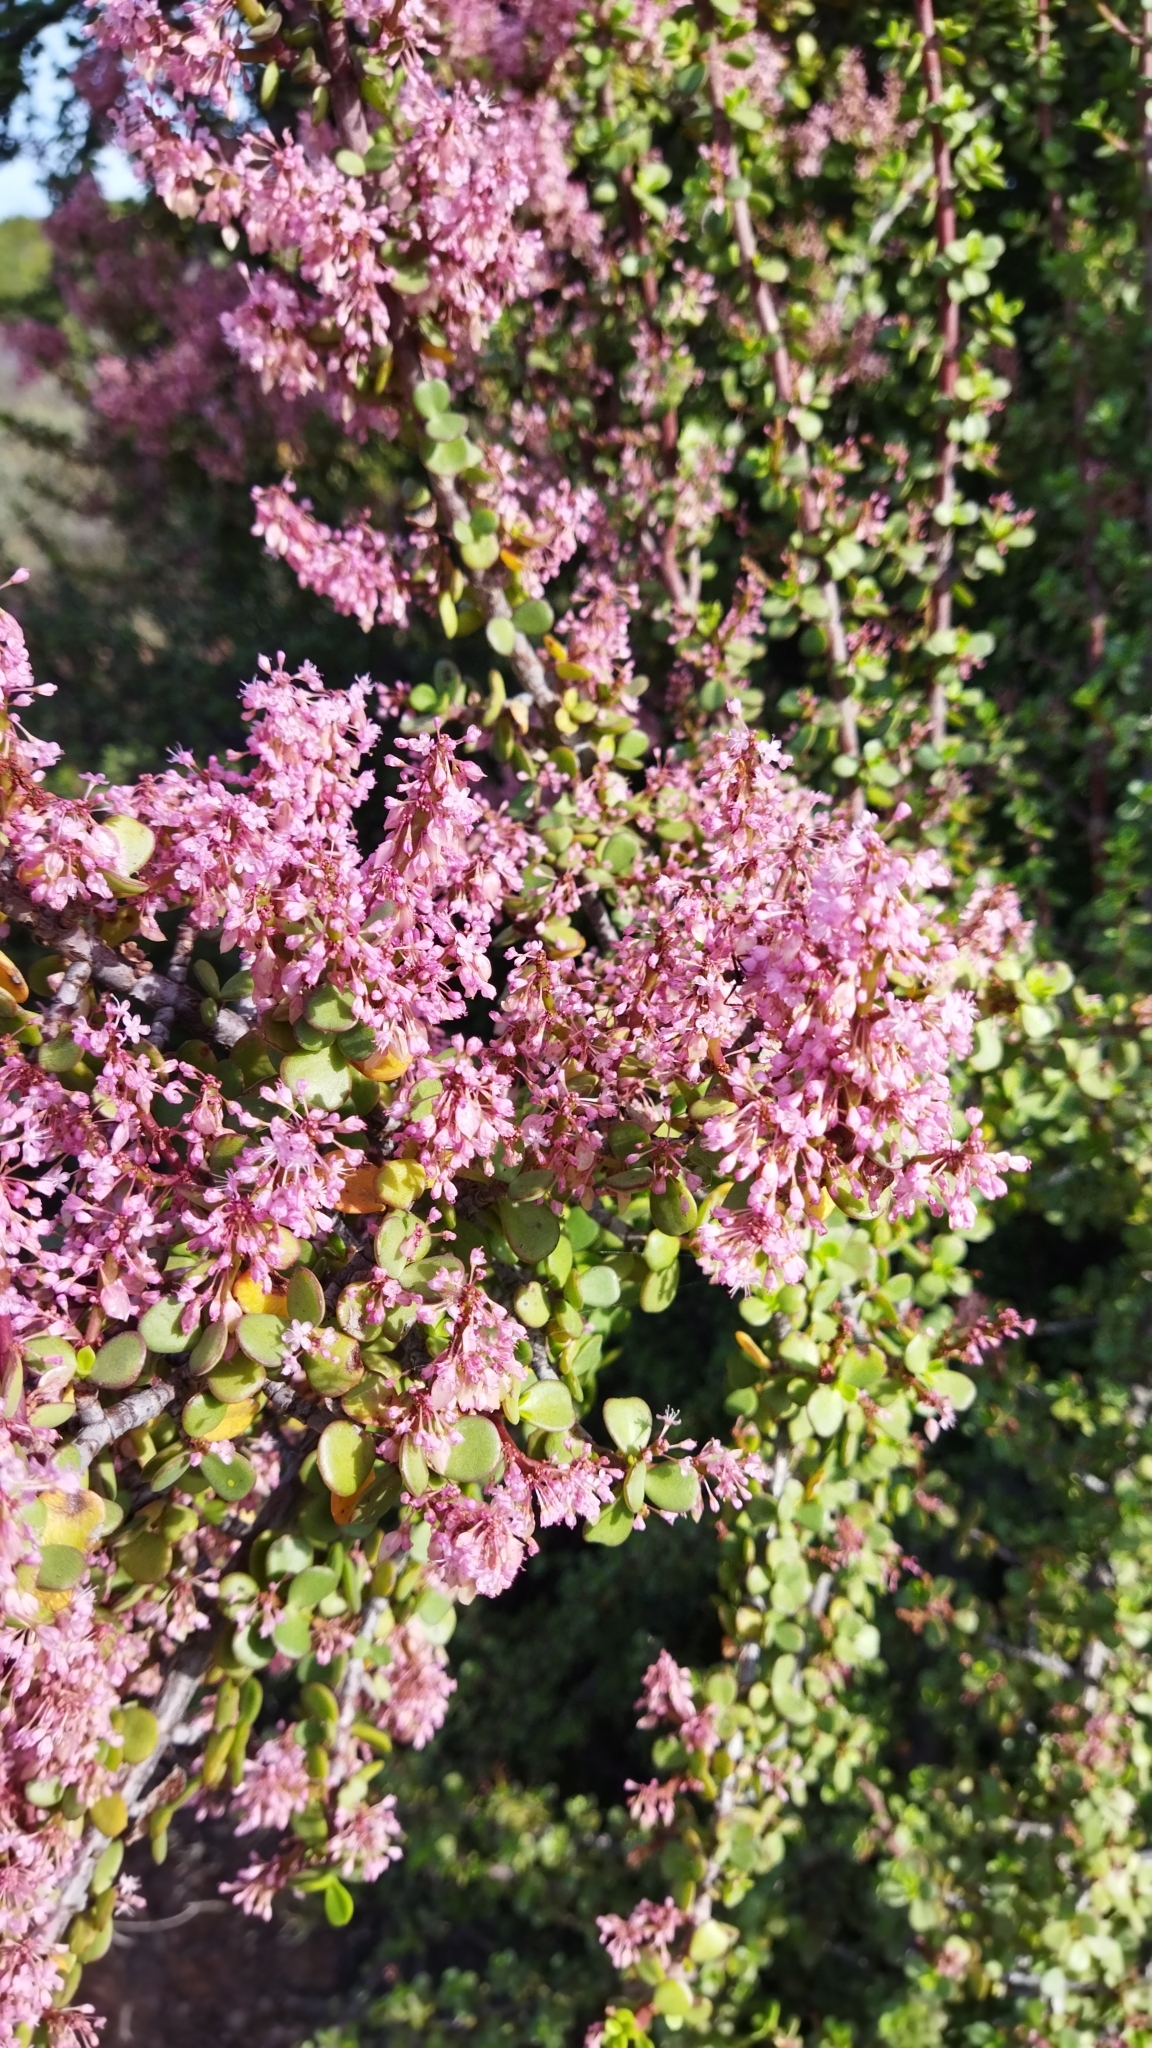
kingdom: Plantae
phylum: Tracheophyta
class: Magnoliopsida
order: Caryophyllales
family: Didiereaceae
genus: Portulacaria
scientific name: Portulacaria afra
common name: Elephant-bush
